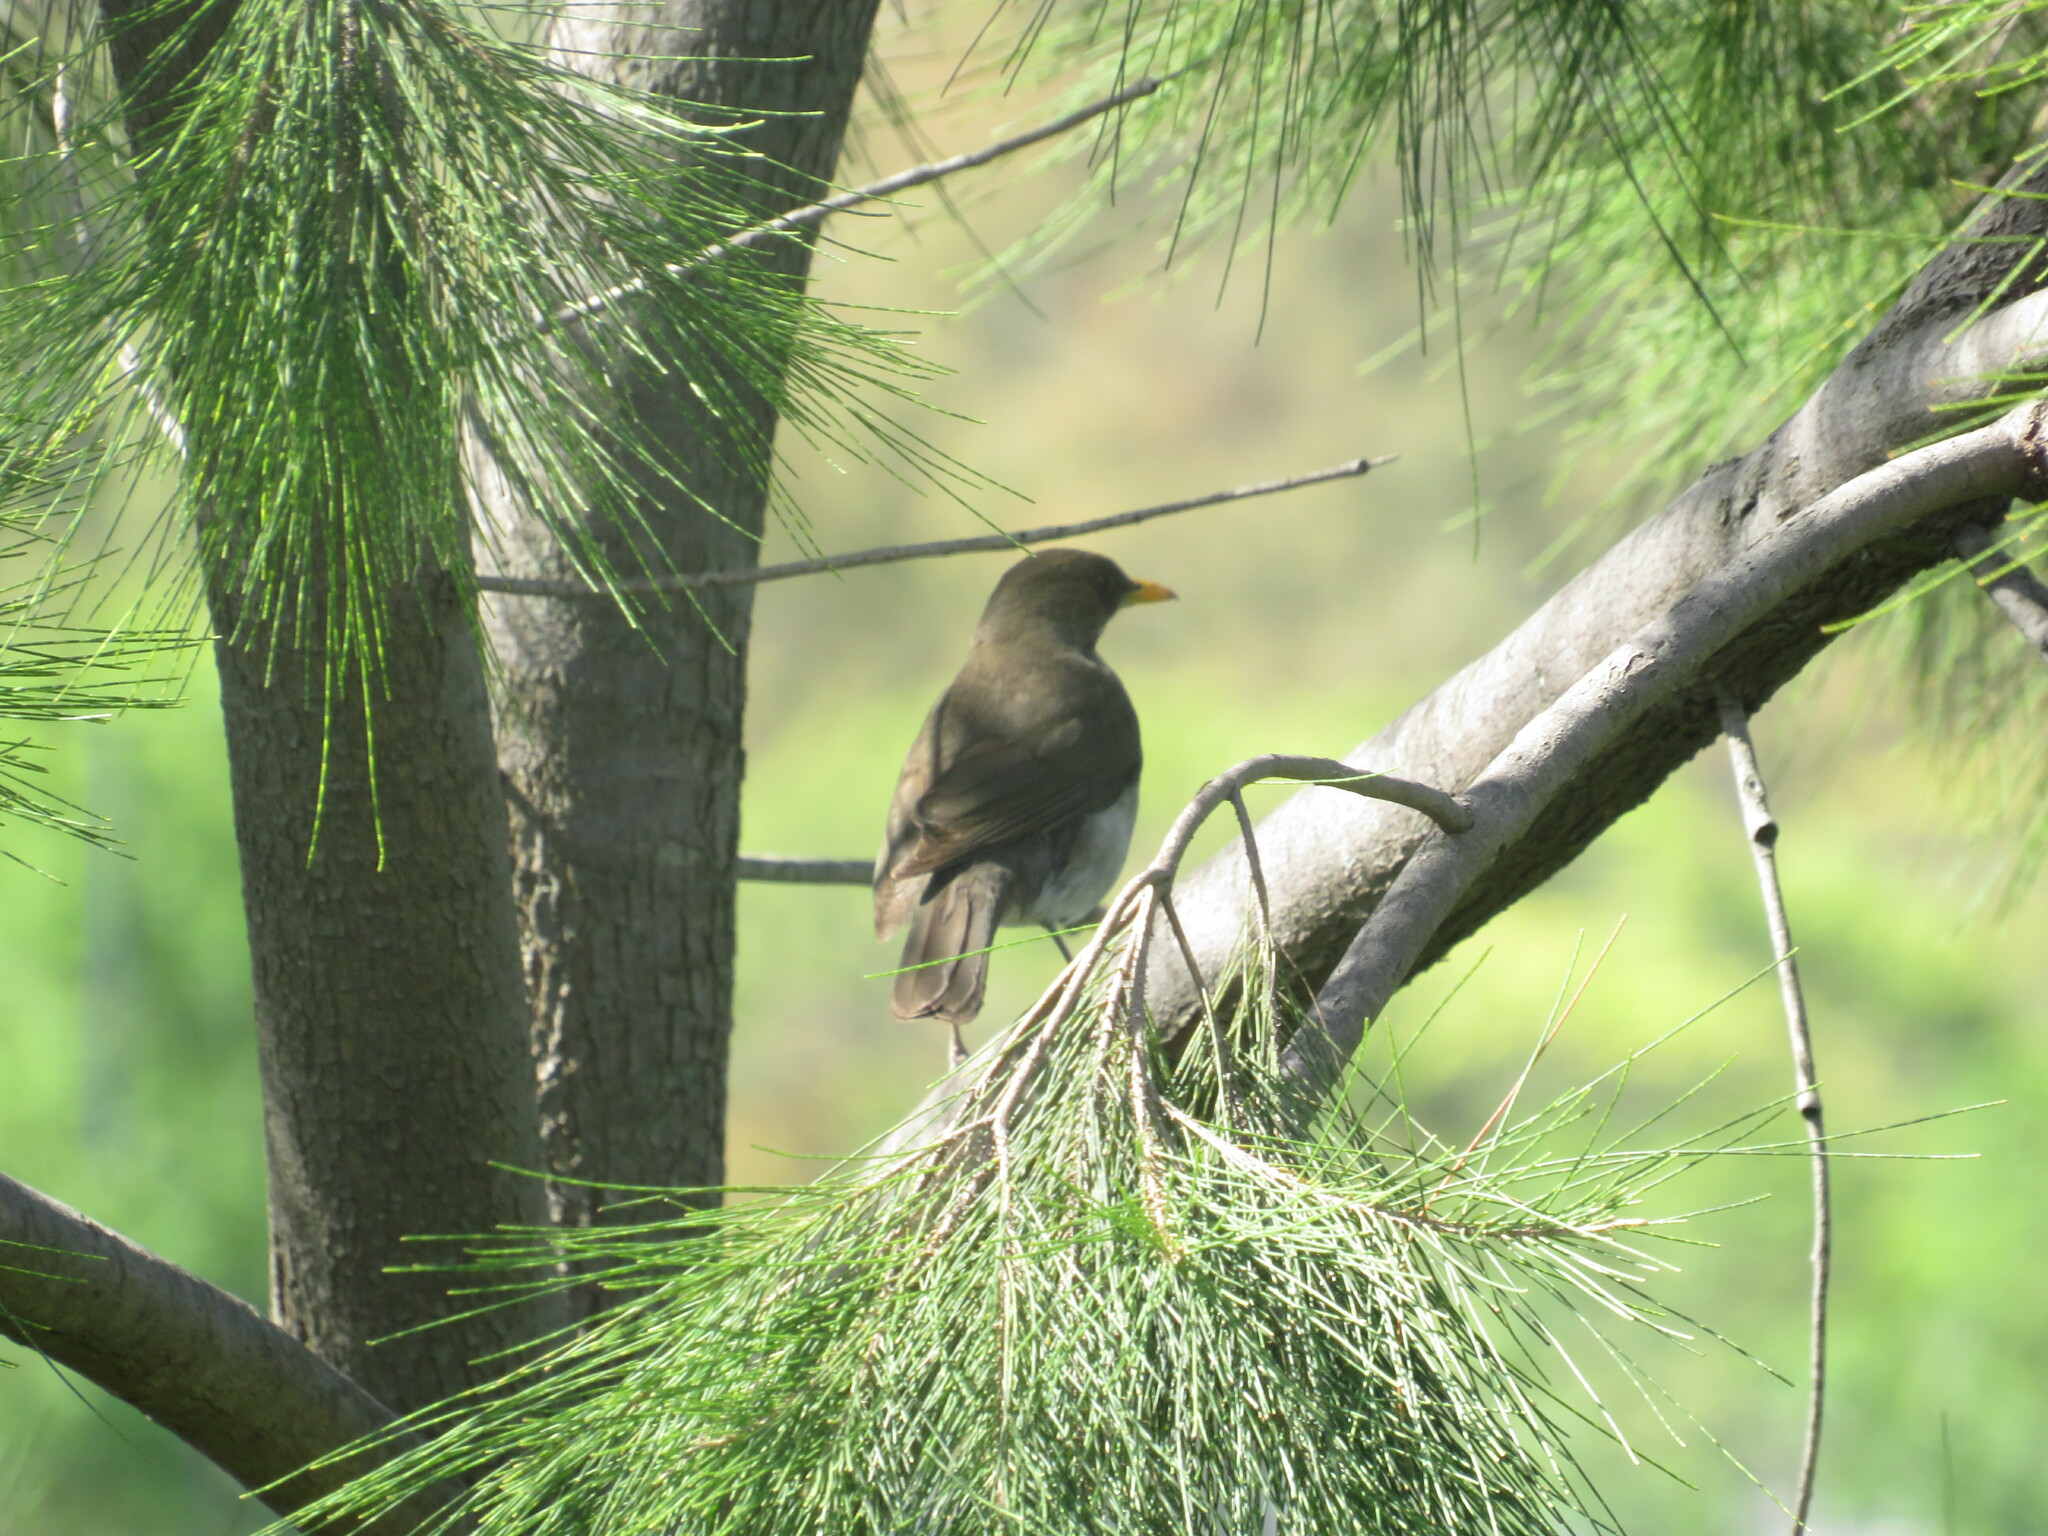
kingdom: Animalia
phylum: Chordata
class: Aves
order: Passeriformes
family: Turdidae
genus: Turdus
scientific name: Turdus amaurochalinus
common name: Creamy-bellied thrush
